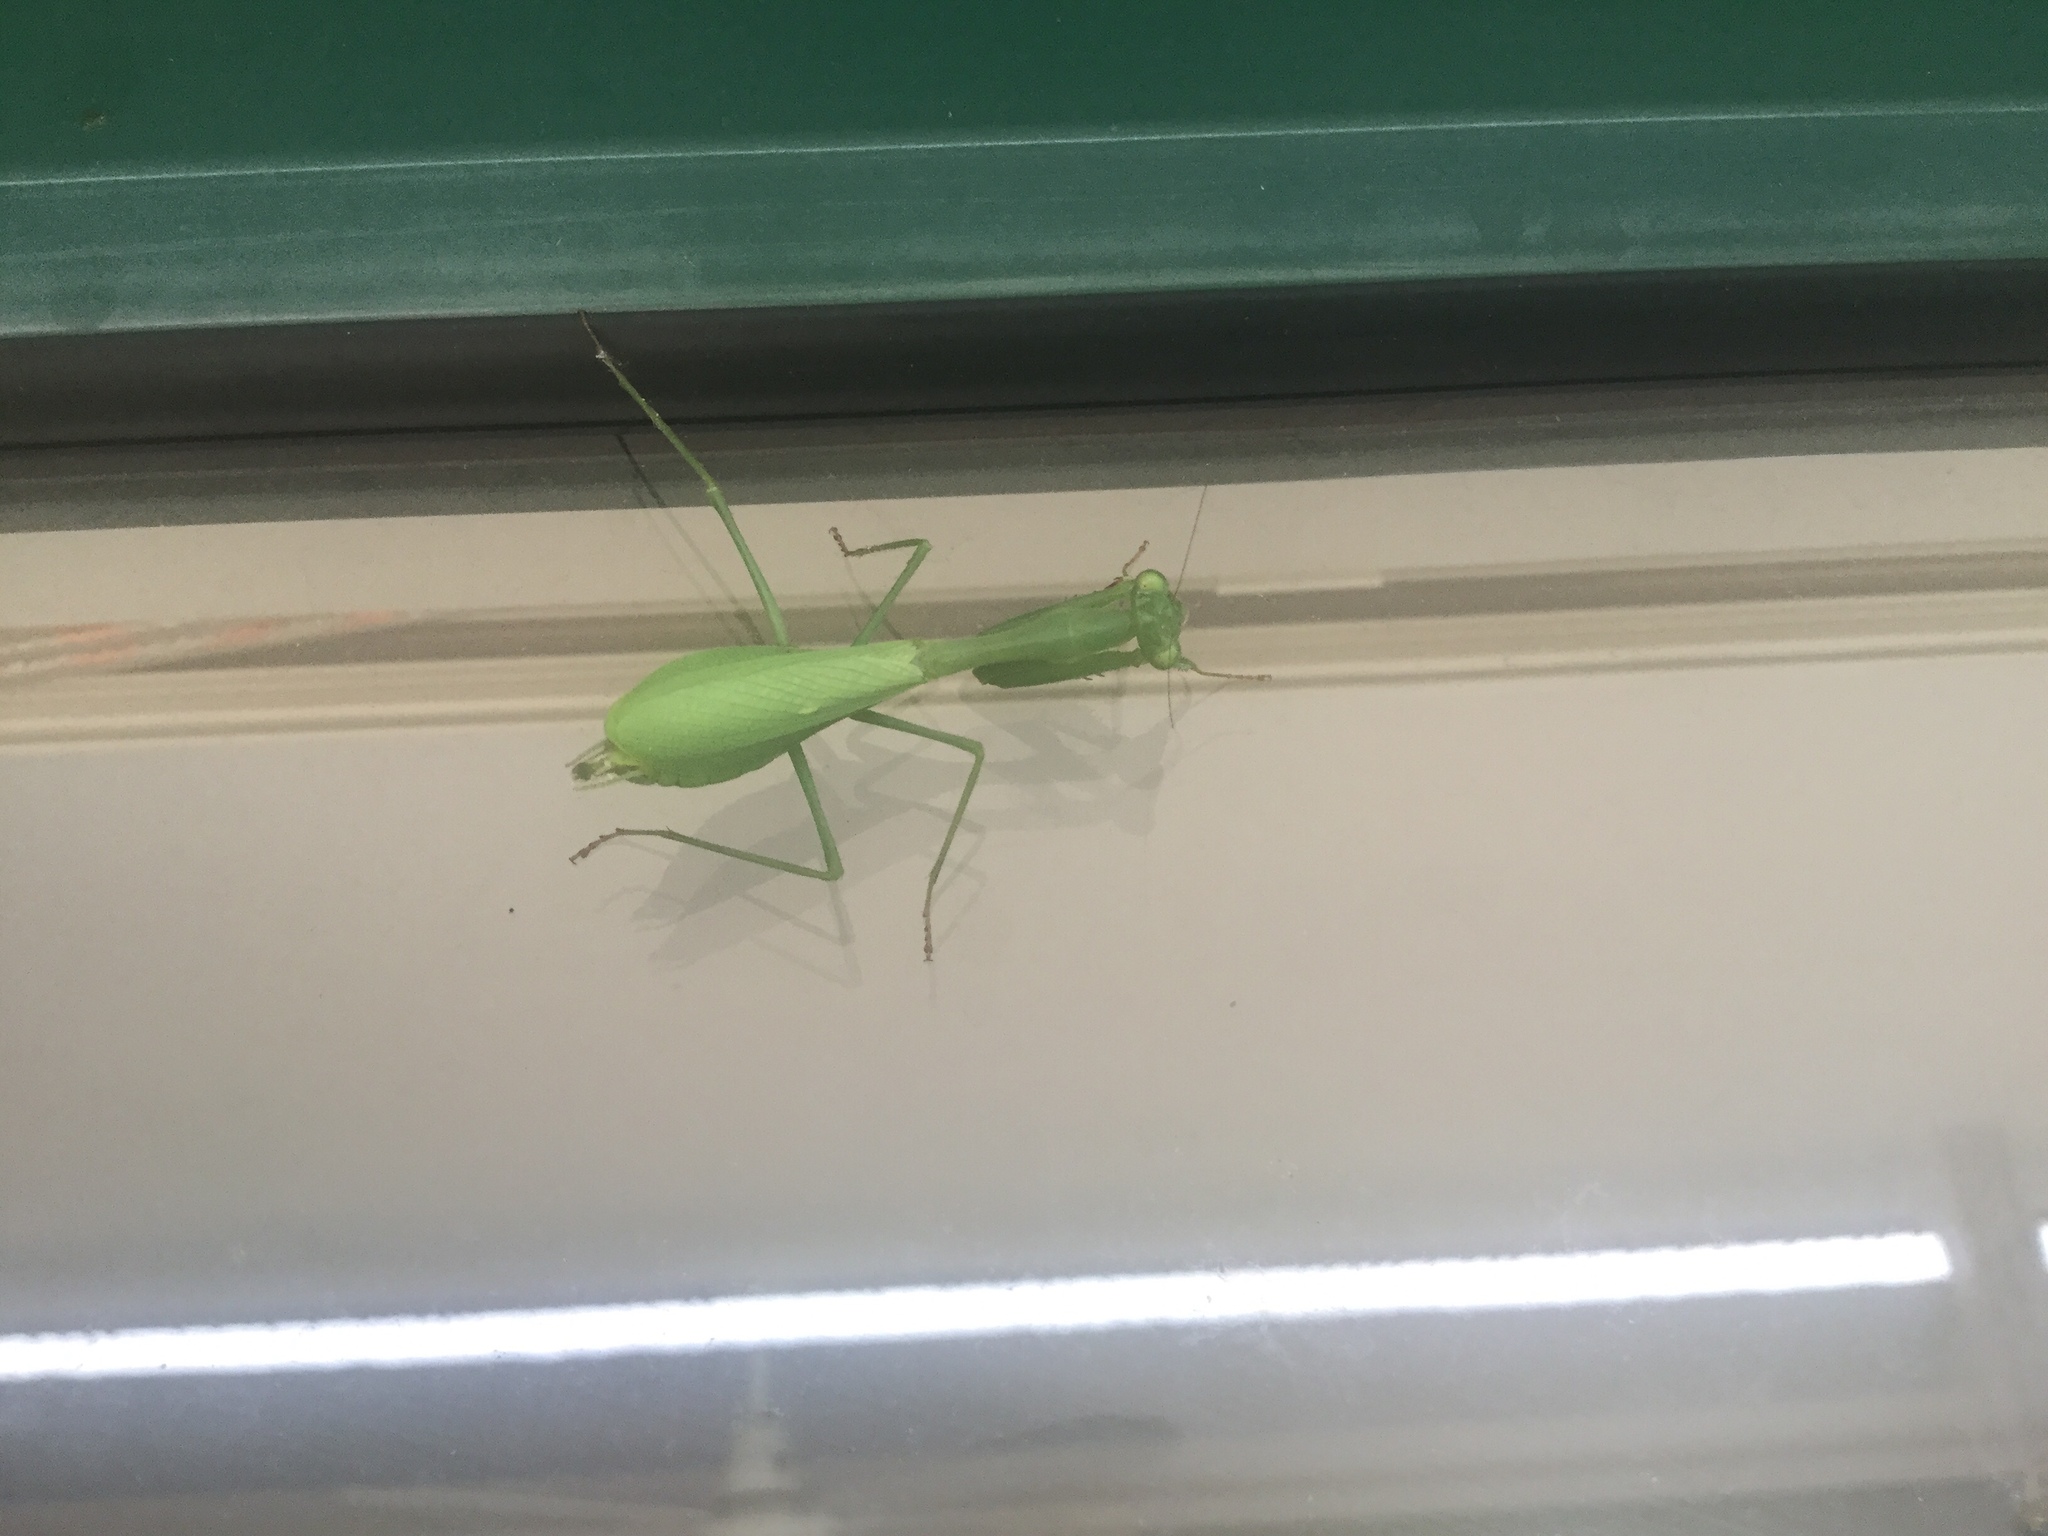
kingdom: Animalia
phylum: Arthropoda
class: Insecta
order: Mantodea
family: Miomantidae
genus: Miomantis
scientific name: Miomantis caffra
